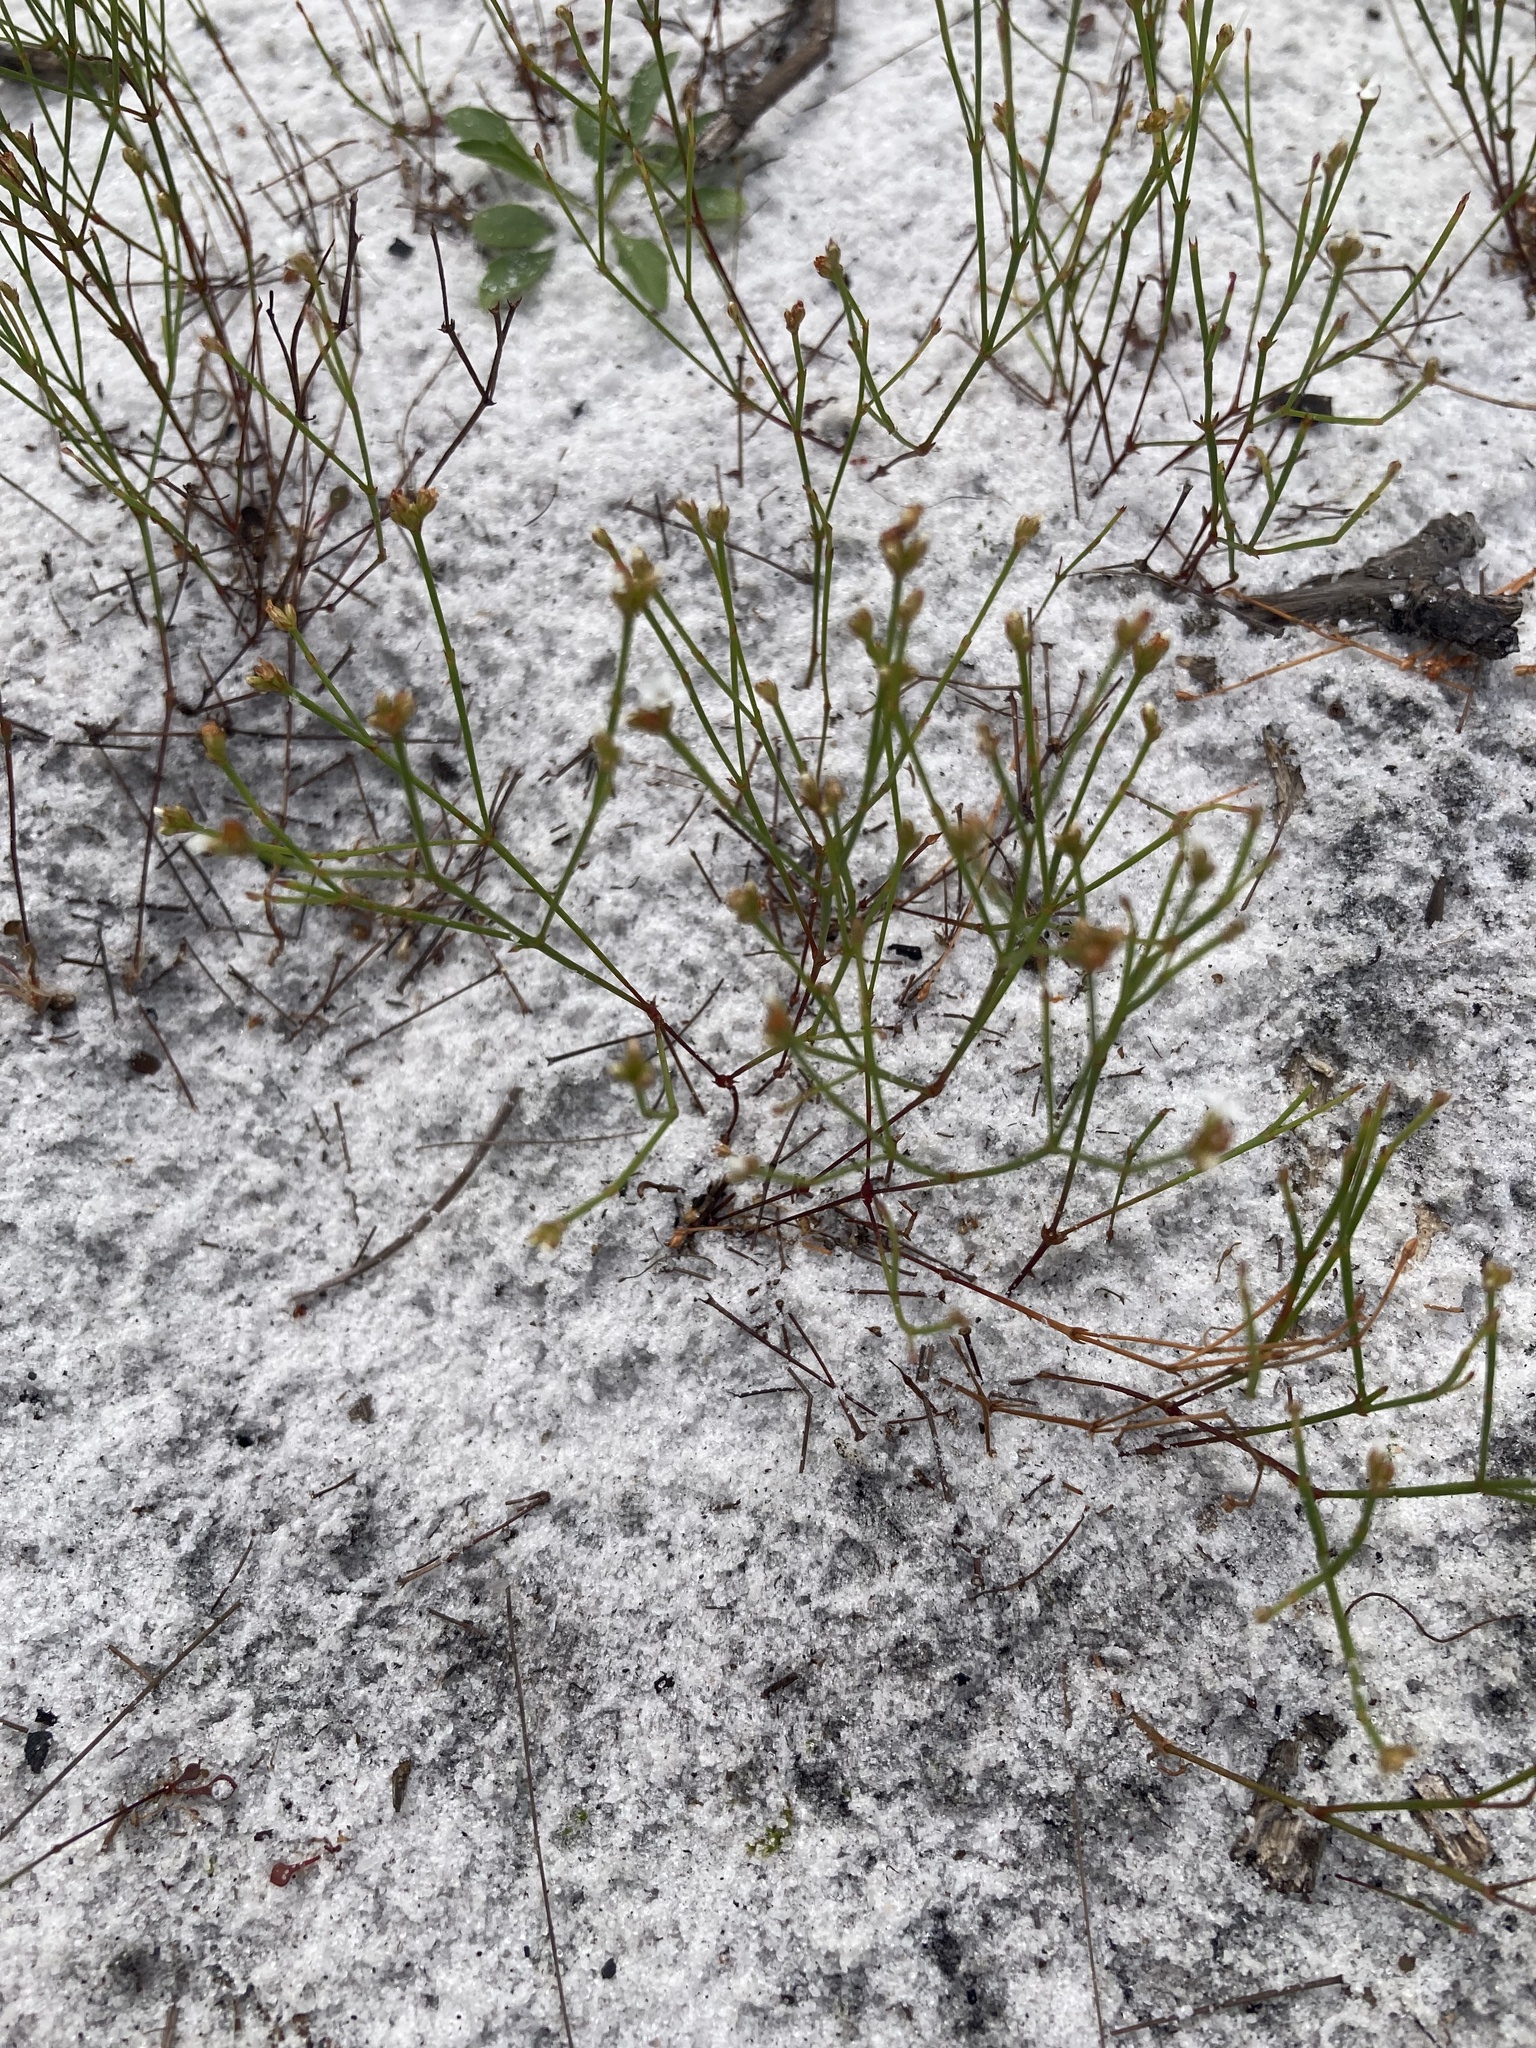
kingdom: Plantae
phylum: Tracheophyta
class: Magnoliopsida
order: Caryophyllales
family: Caryophyllaceae
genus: Stipulicida
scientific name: Stipulicida setacea
